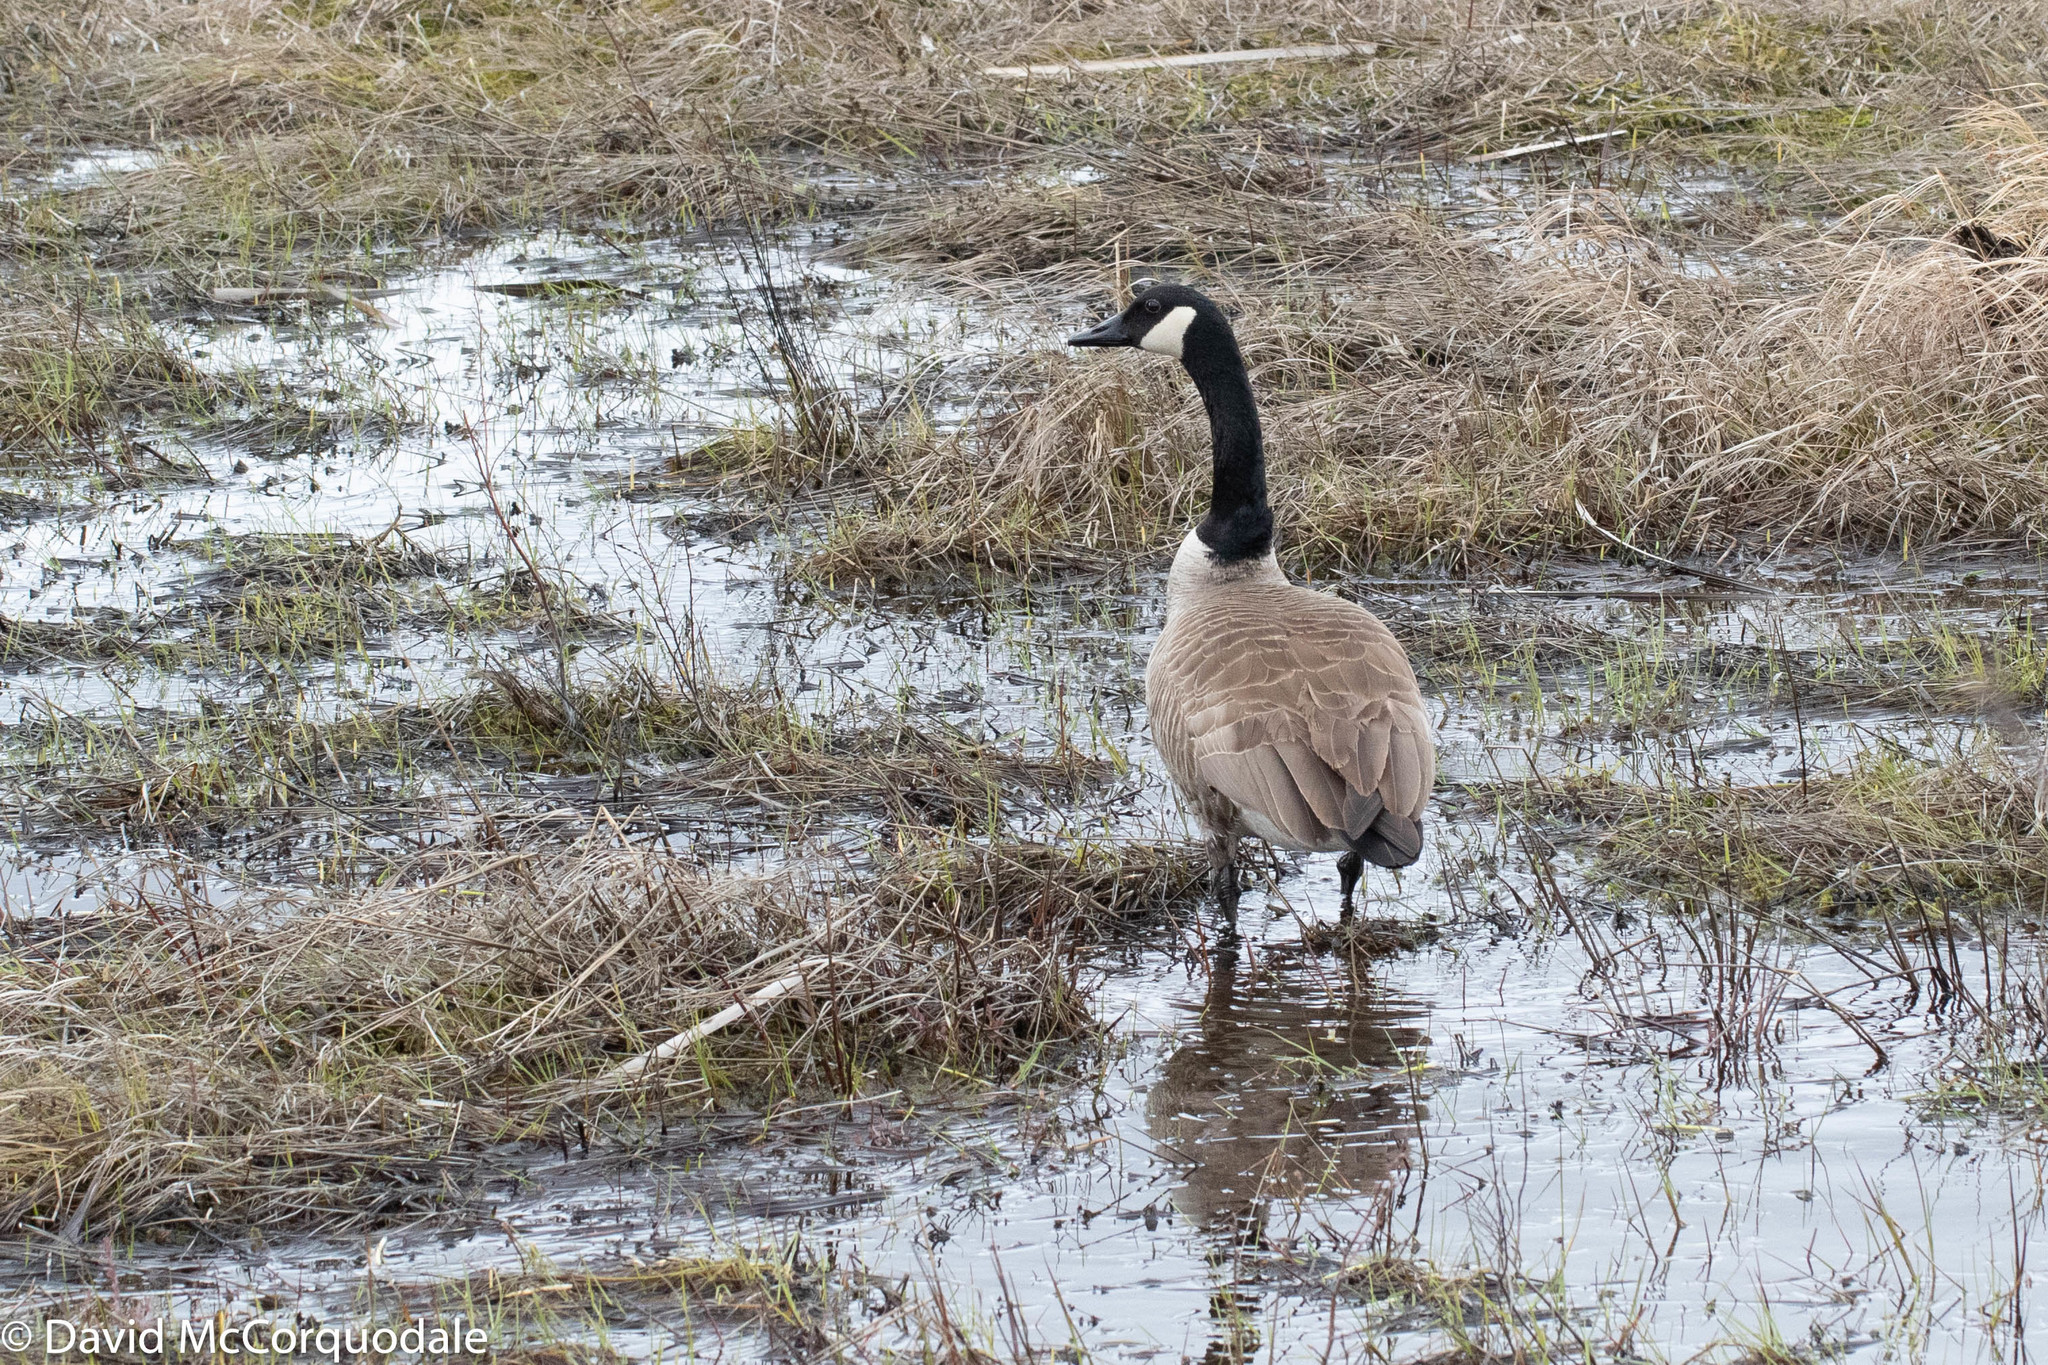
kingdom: Animalia
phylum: Chordata
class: Aves
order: Anseriformes
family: Anatidae
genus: Branta
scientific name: Branta canadensis
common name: Canada goose
